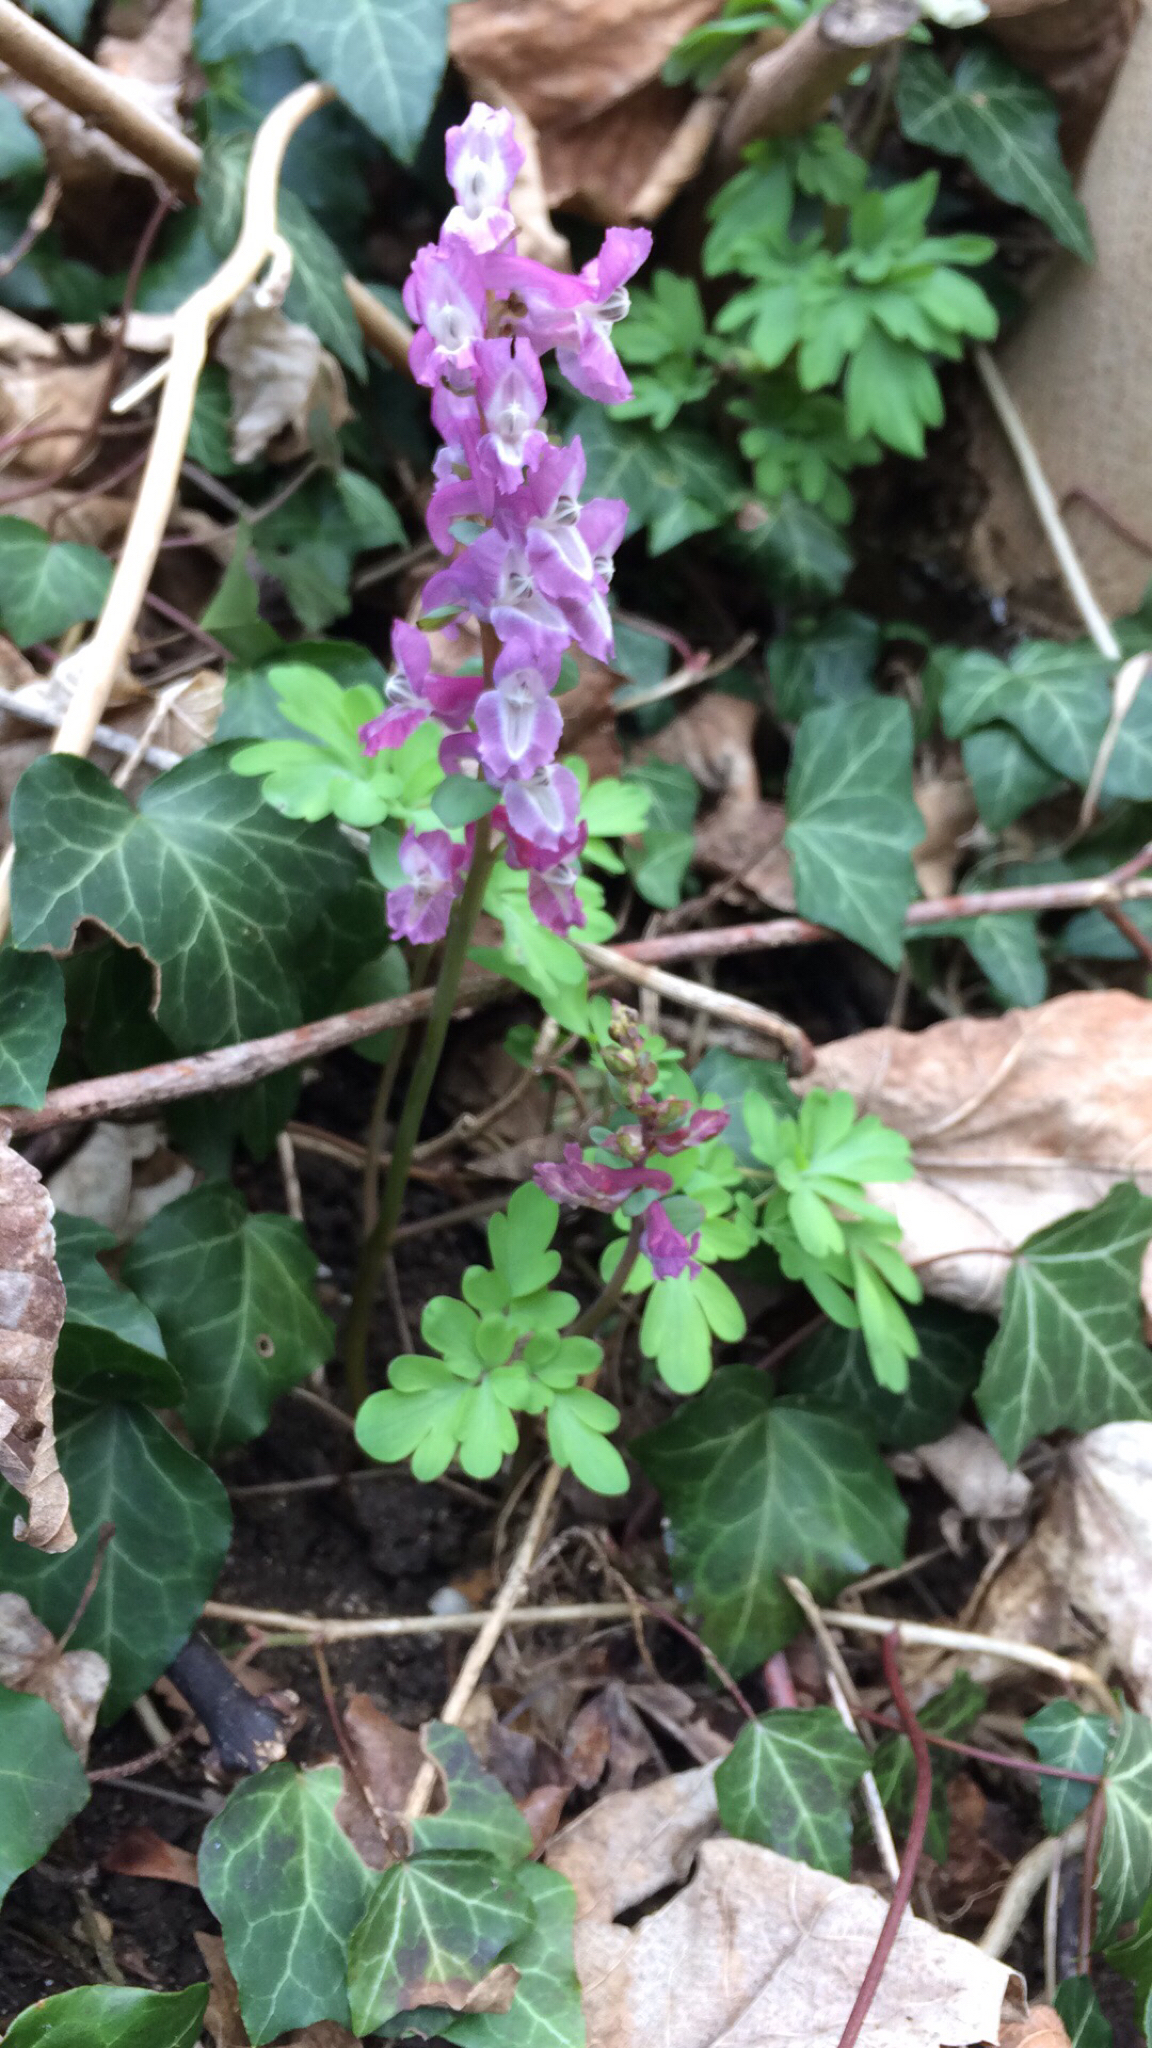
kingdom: Plantae
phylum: Tracheophyta
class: Magnoliopsida
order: Ranunculales
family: Papaveraceae
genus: Corydalis
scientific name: Corydalis cava
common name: Hollowroot
